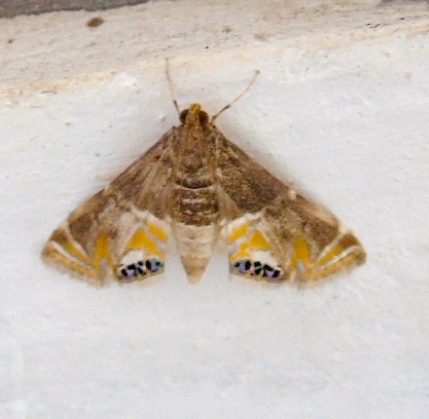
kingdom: Animalia
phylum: Arthropoda
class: Insecta
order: Lepidoptera
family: Crambidae
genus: Petrophila
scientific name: Petrophila
